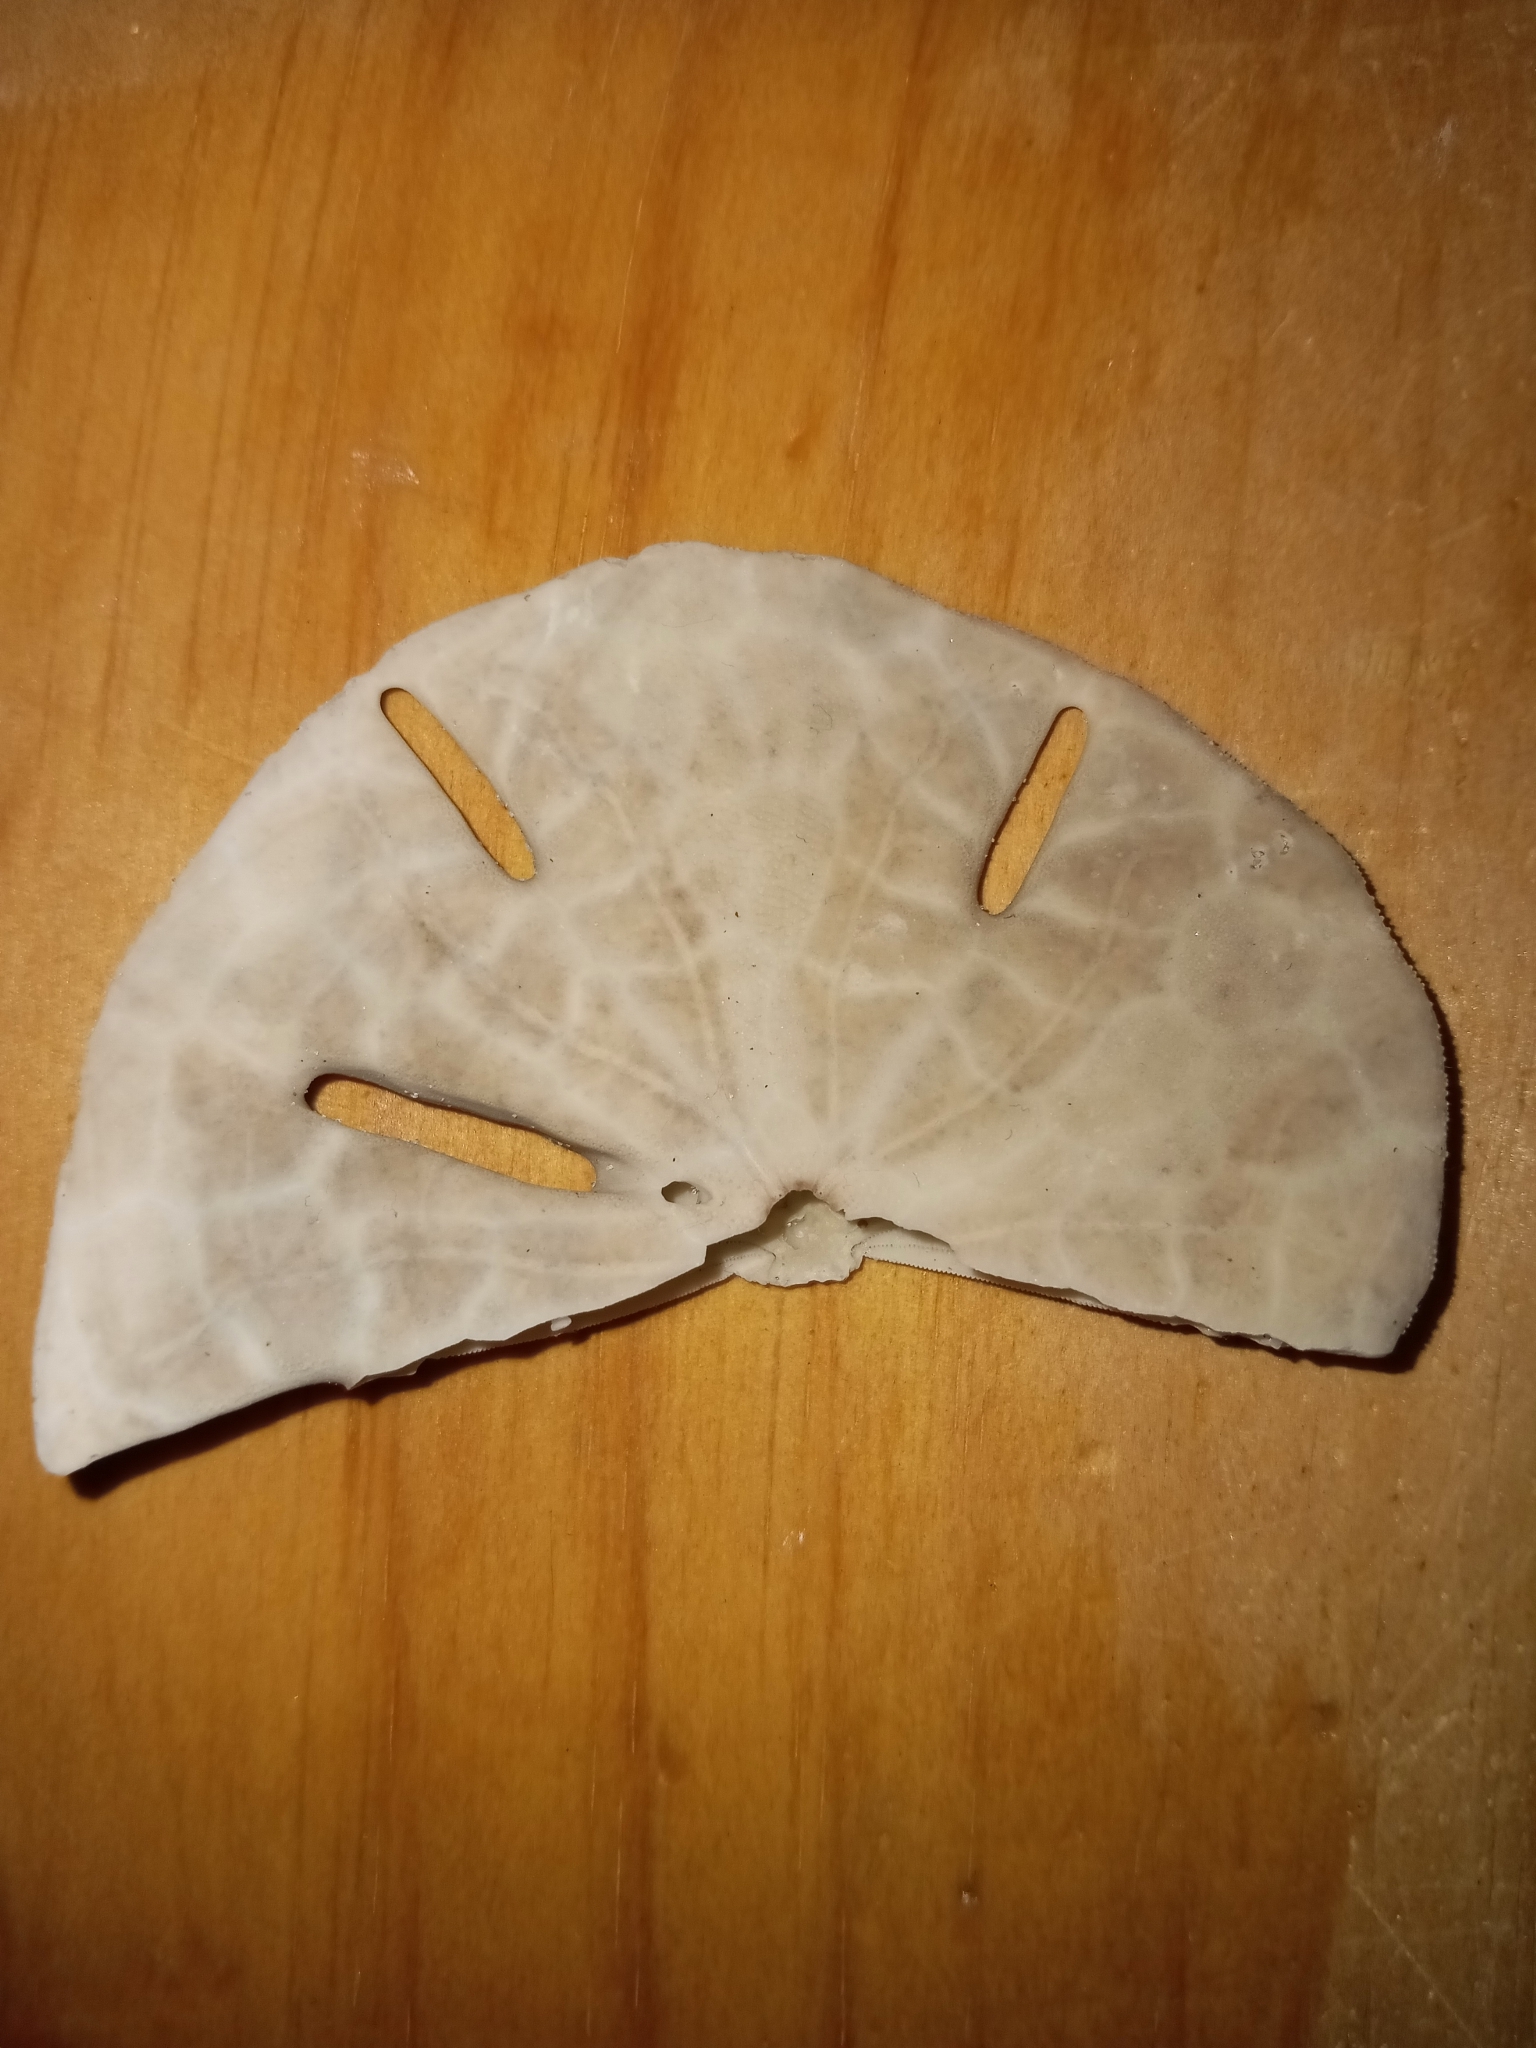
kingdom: Animalia
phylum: Echinodermata
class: Echinoidea
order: Echinolampadacea
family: Mellitidae
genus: Mellita
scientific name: Mellita isometra
